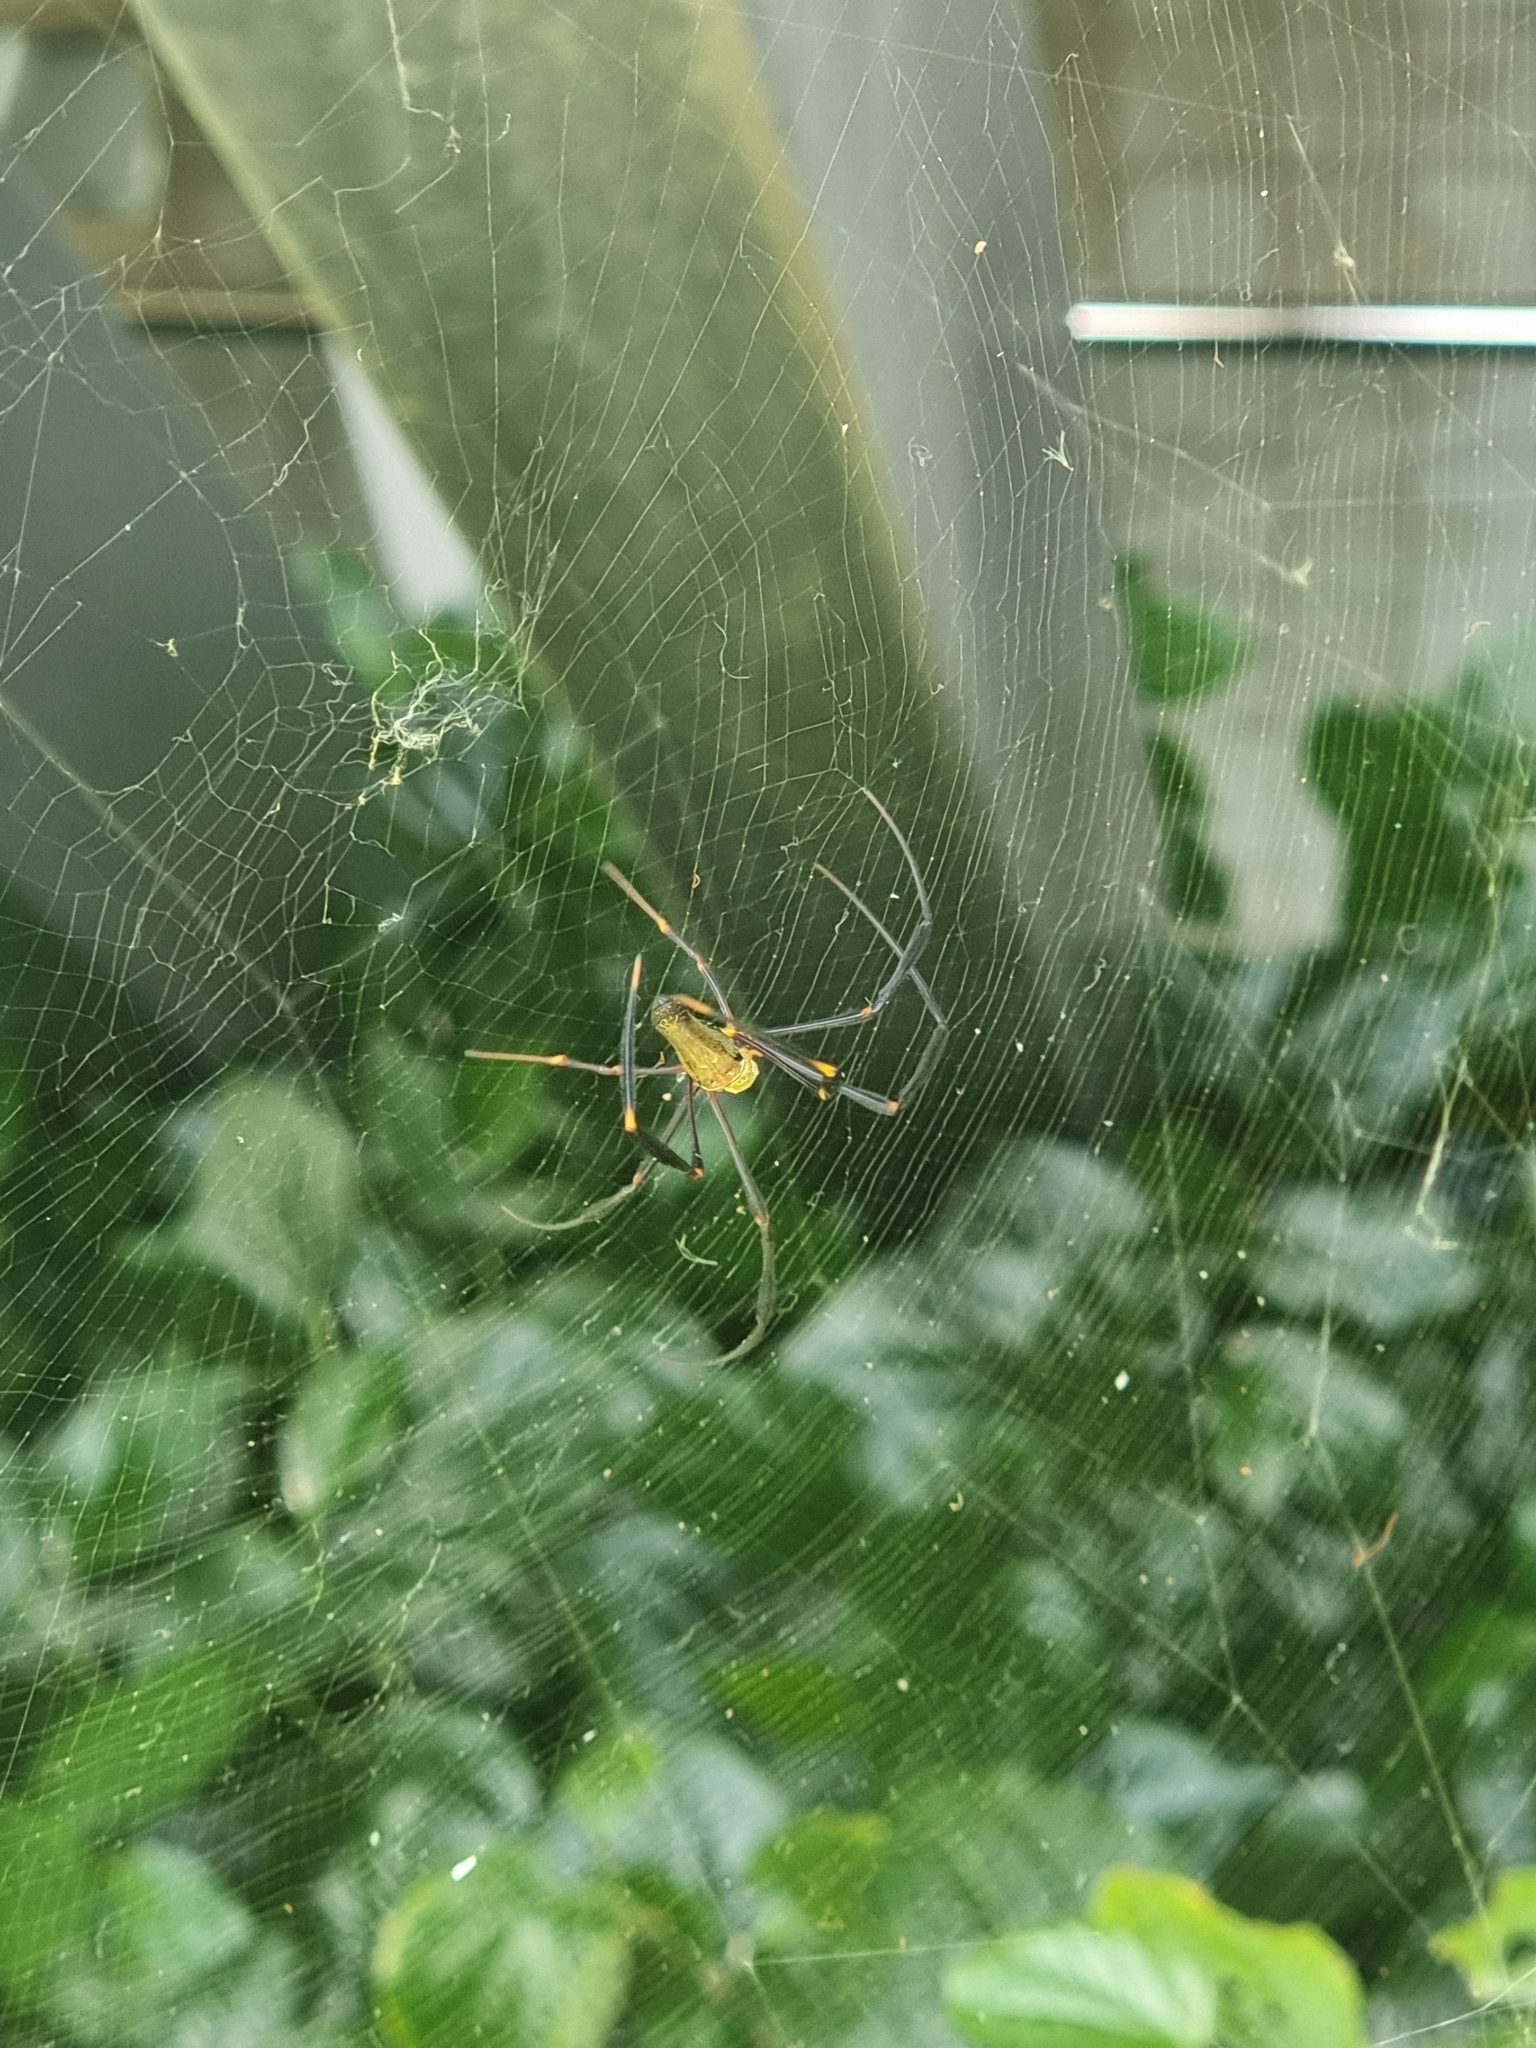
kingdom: Animalia
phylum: Arthropoda
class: Arachnida
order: Araneae
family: Araneidae
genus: Nephila
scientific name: Nephila pilipes
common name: Giant golden orb weaver
